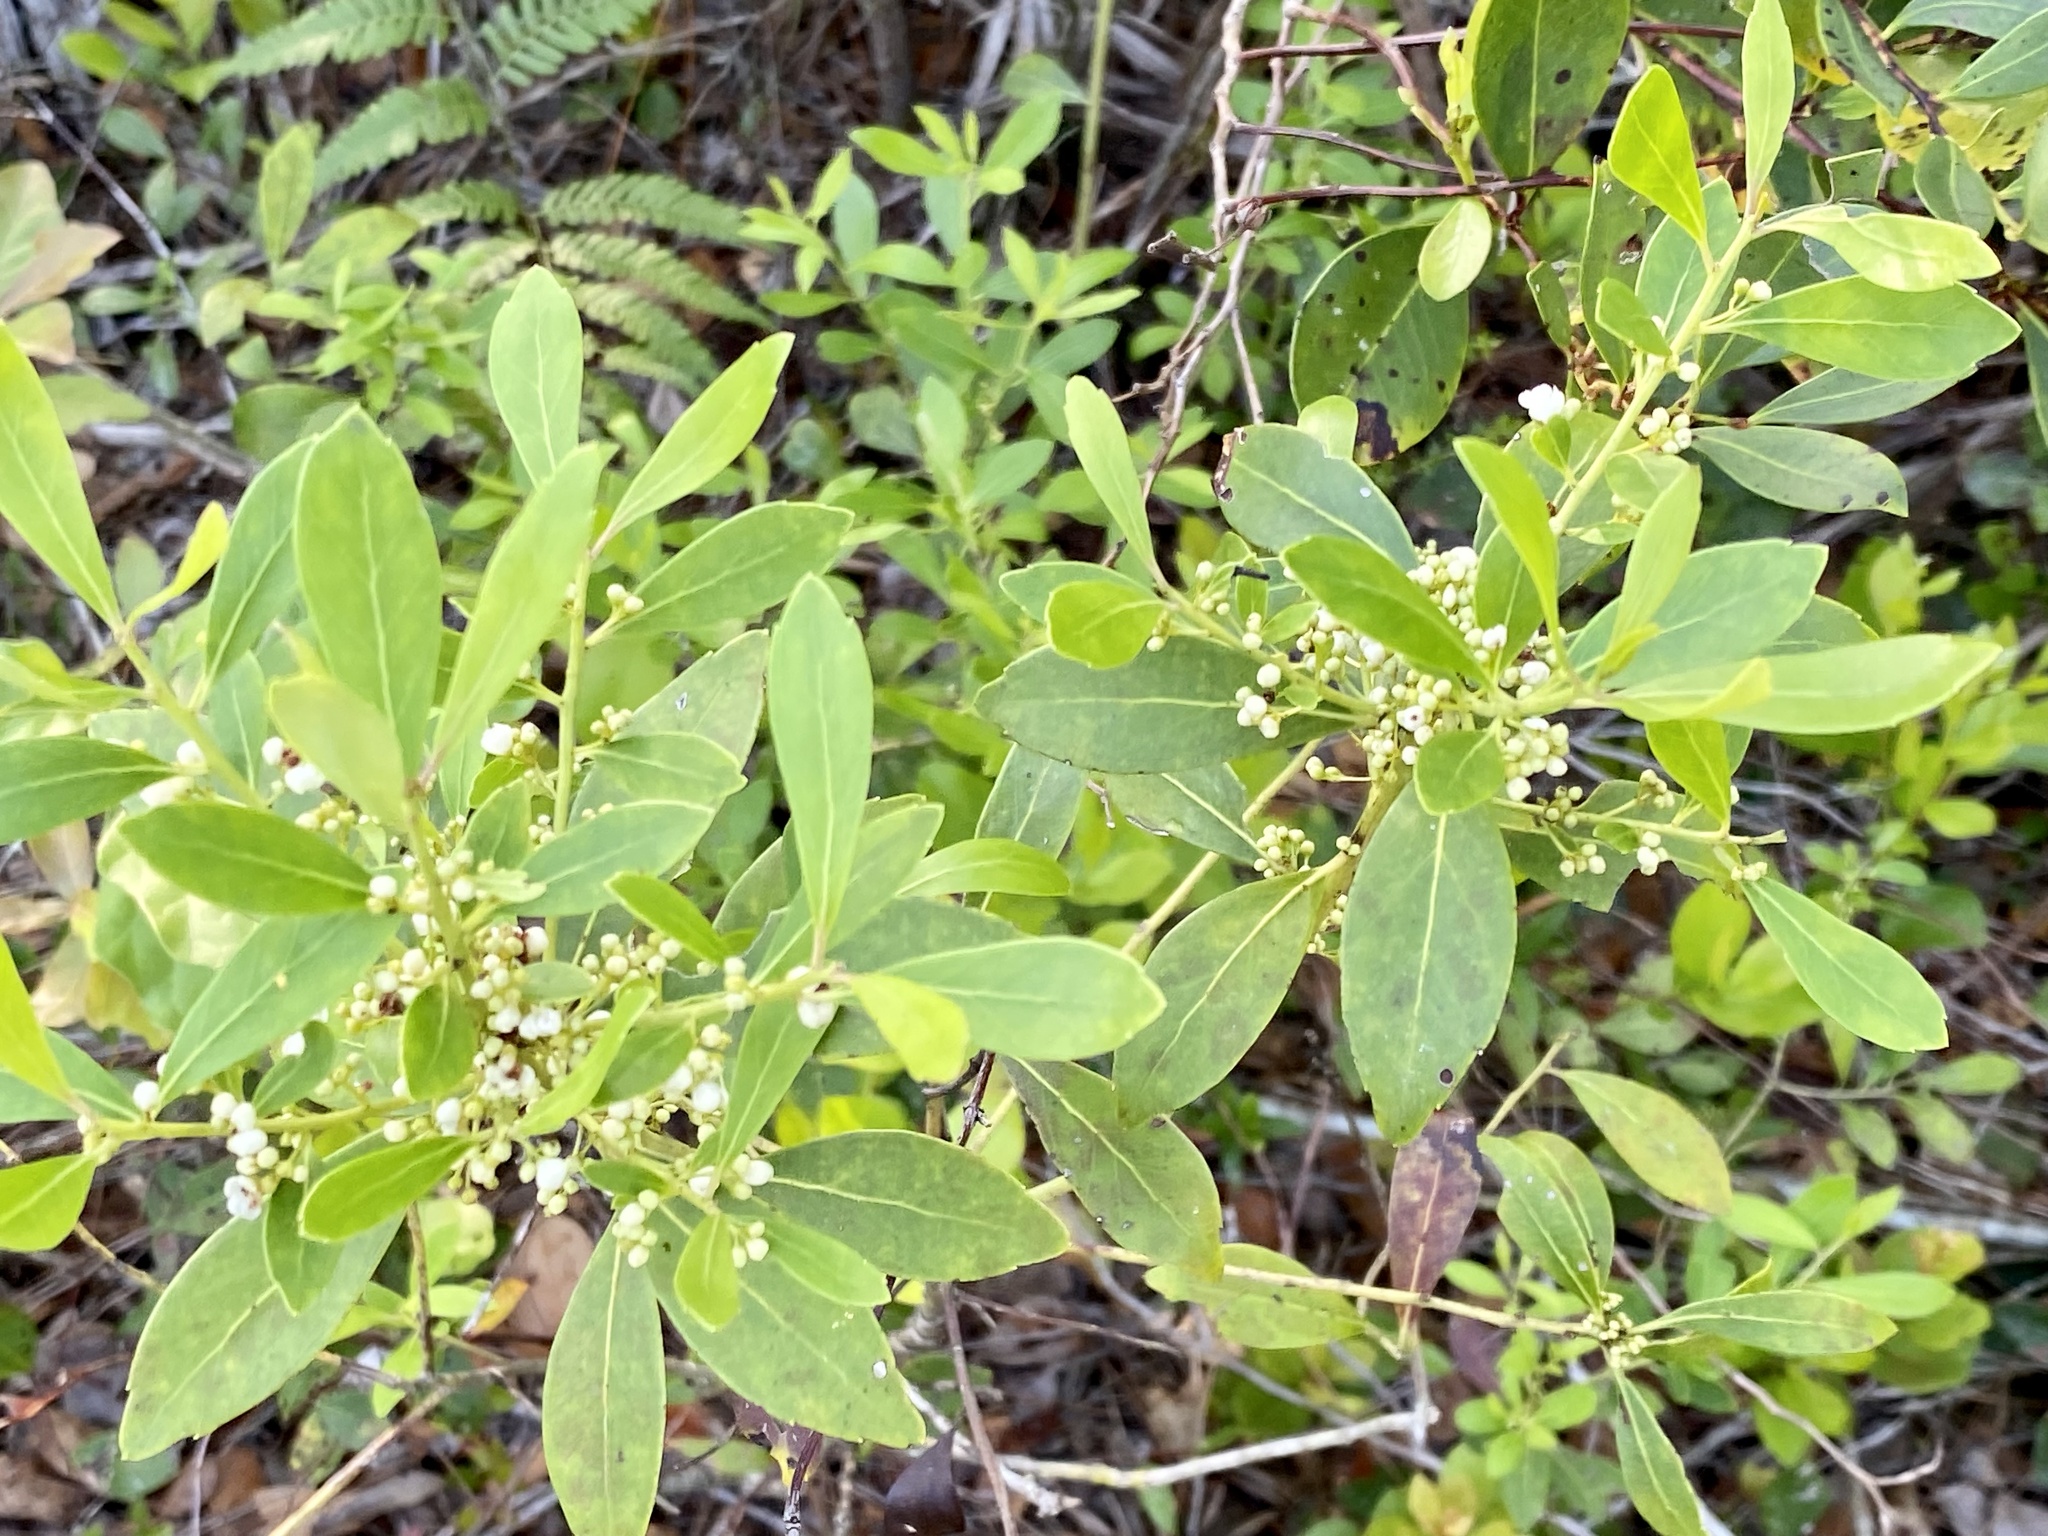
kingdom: Plantae
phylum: Tracheophyta
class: Magnoliopsida
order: Aquifoliales
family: Aquifoliaceae
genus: Ilex
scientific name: Ilex glabra
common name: Bitter gallberry
